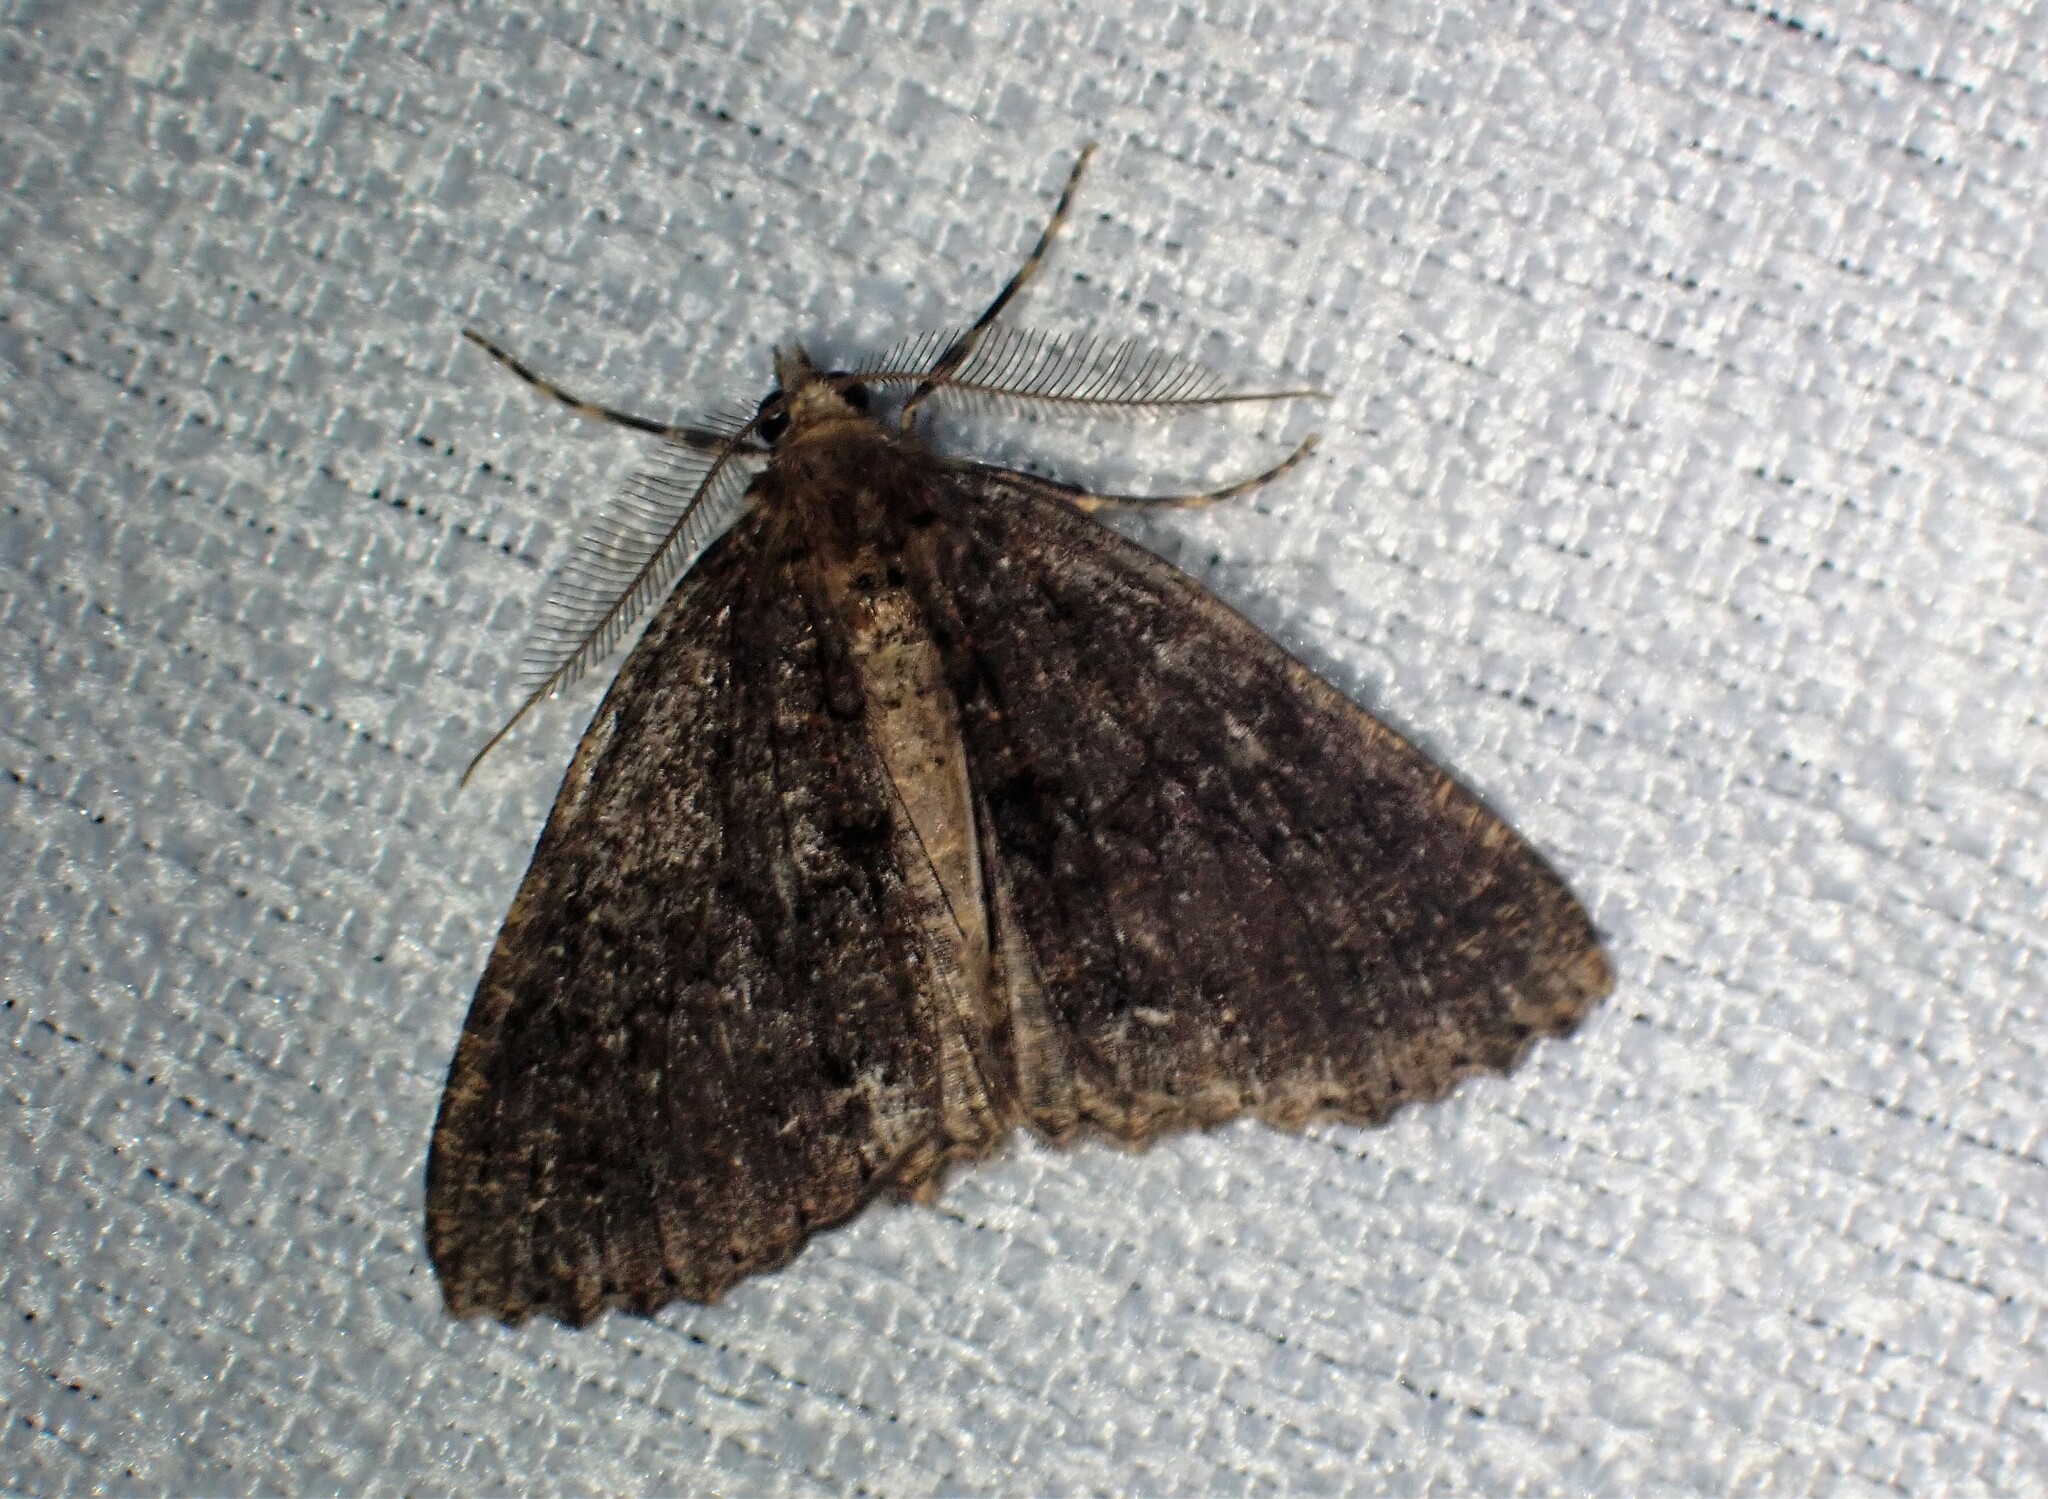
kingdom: Animalia
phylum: Arthropoda
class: Insecta
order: Lepidoptera
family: Geometridae
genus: Ascotis
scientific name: Ascotis fortunata
